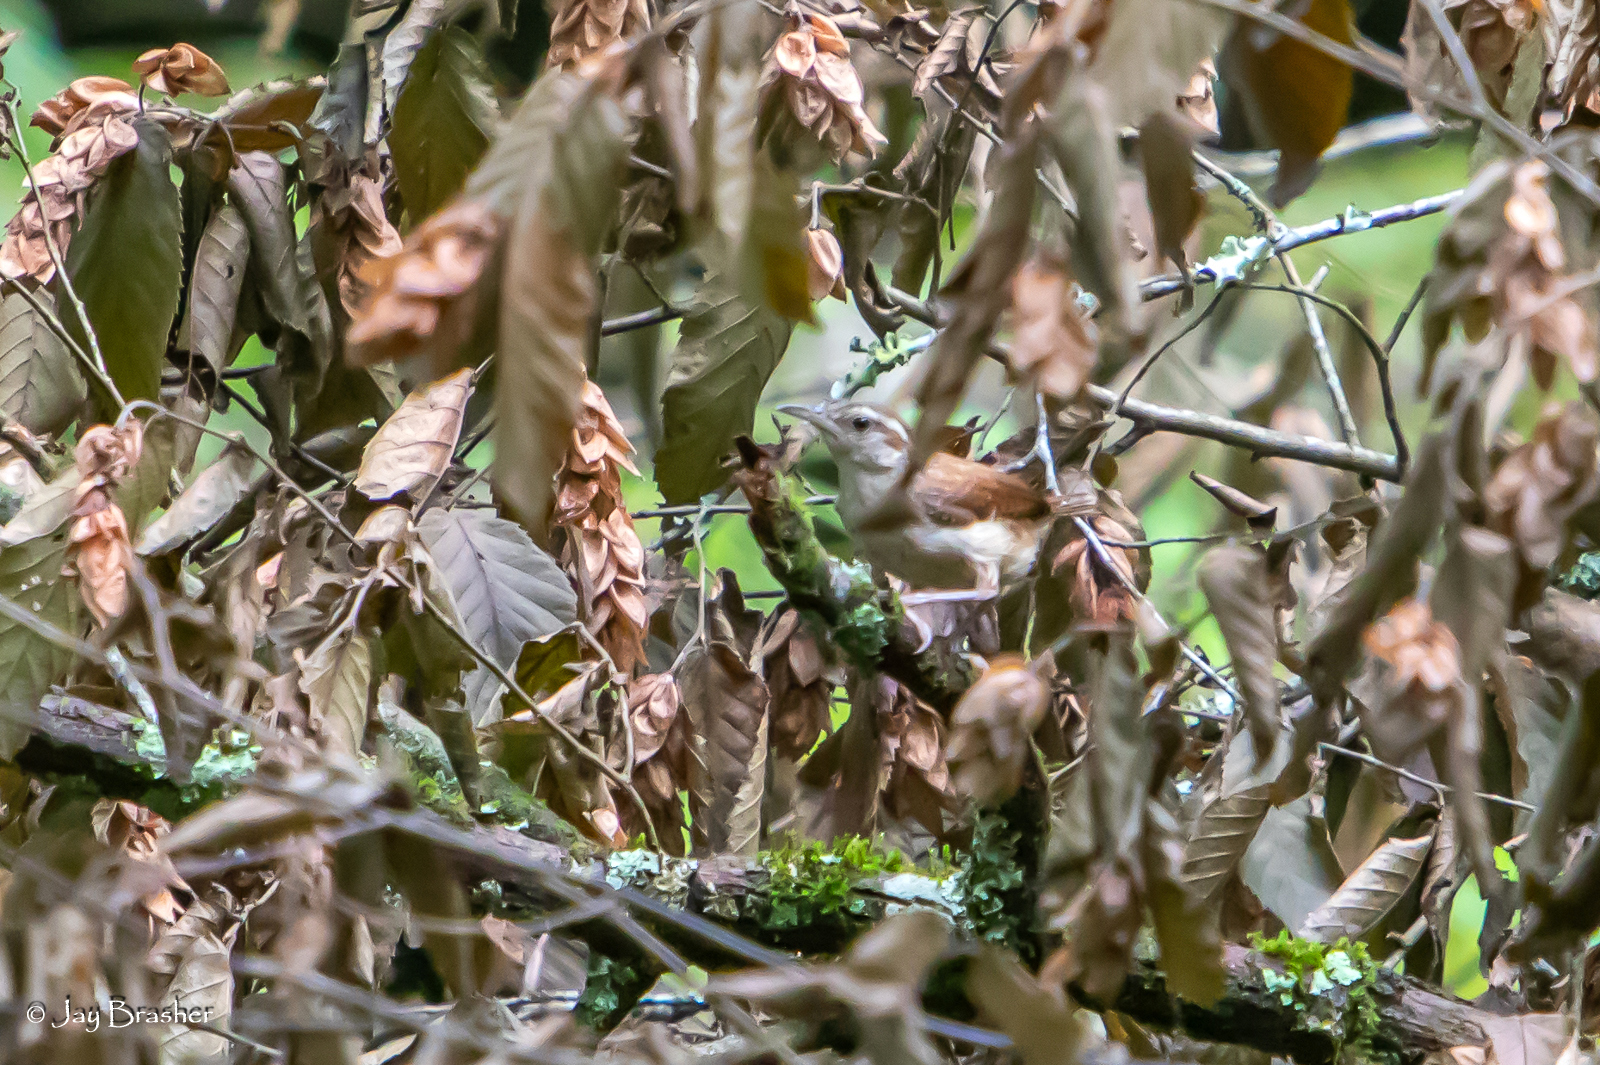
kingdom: Animalia
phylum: Chordata
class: Aves
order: Passeriformes
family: Troglodytidae
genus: Thryothorus
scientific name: Thryothorus ludovicianus
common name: Carolina wren
